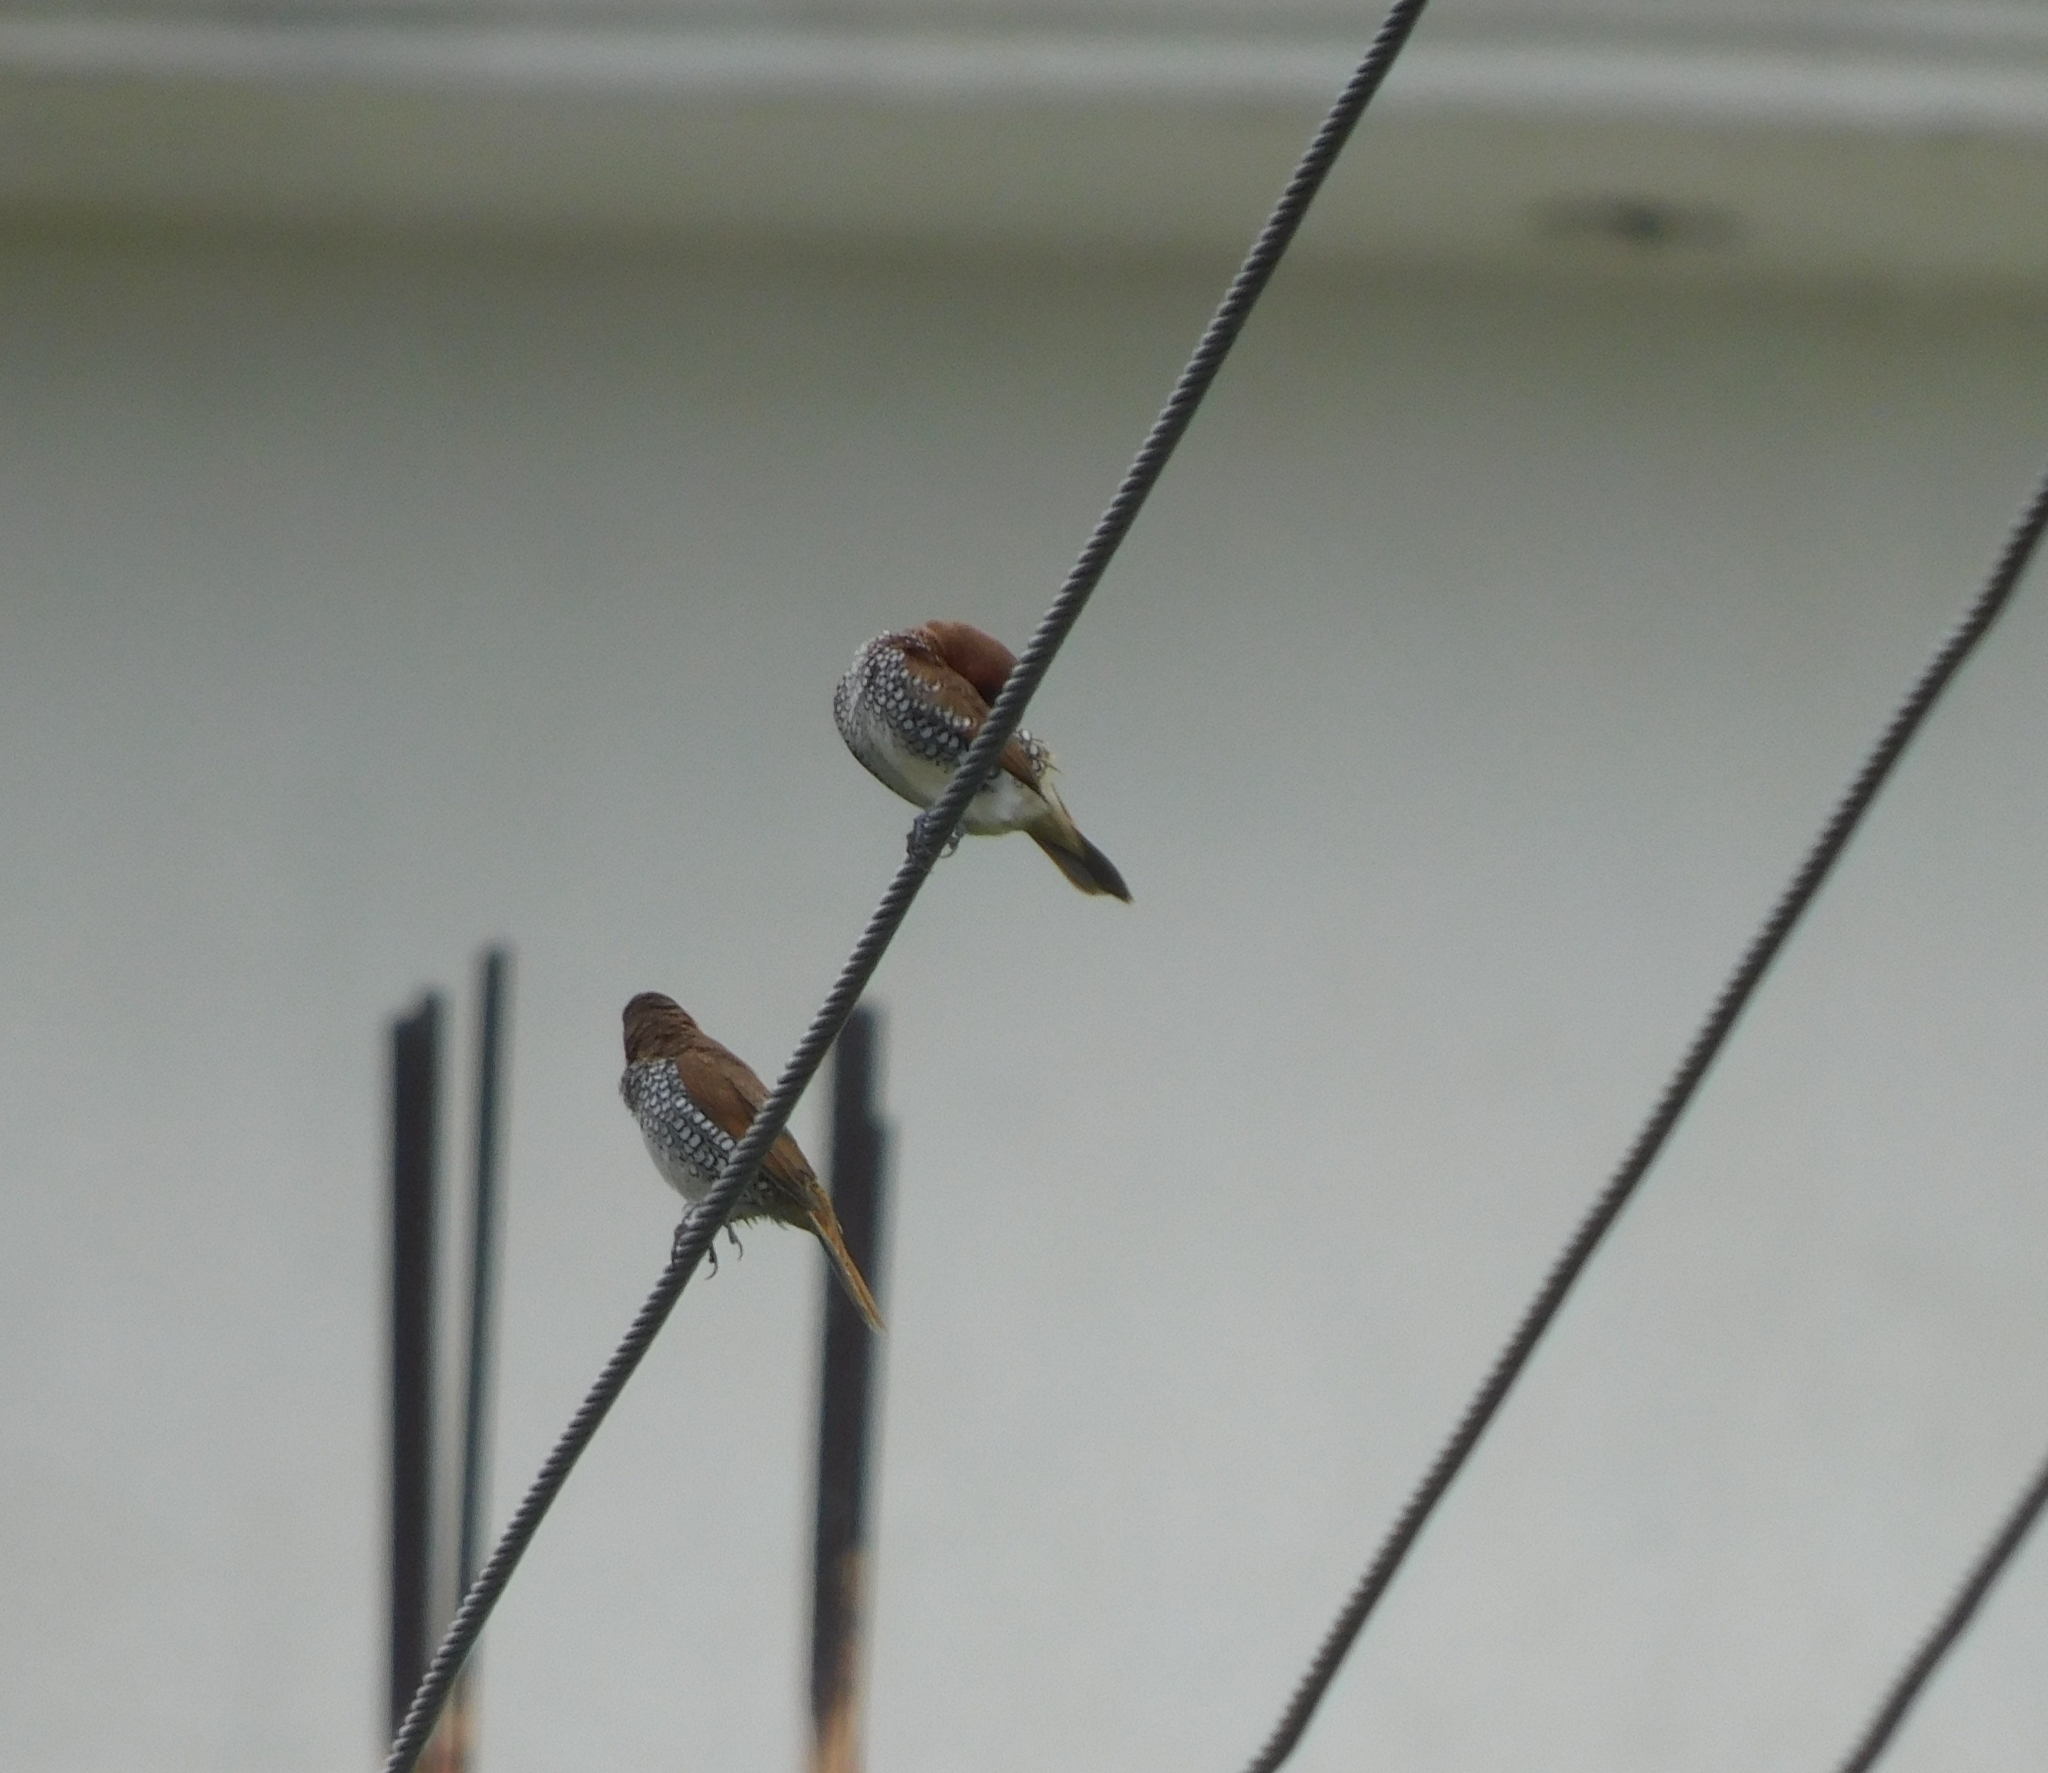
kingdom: Animalia
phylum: Chordata
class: Aves
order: Passeriformes
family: Estrildidae
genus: Lonchura
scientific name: Lonchura punctulata
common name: Scaly-breasted munia
